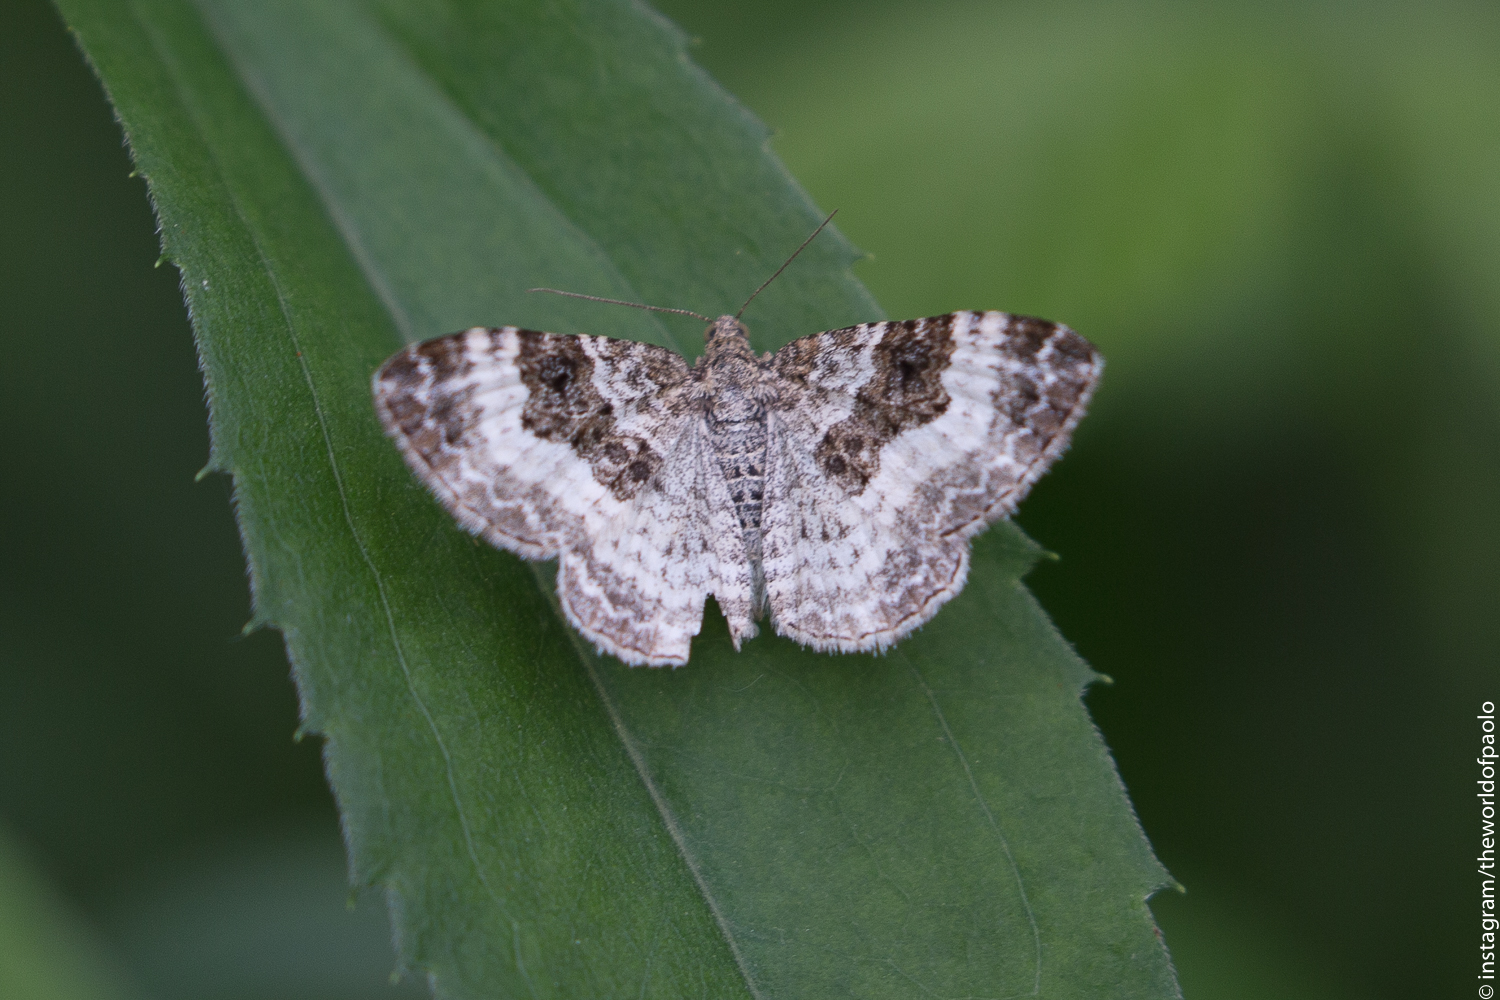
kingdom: Animalia
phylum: Arthropoda
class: Insecta
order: Lepidoptera
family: Geometridae
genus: Epirrhoe
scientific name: Epirrhoe alternata
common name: Common carpet
